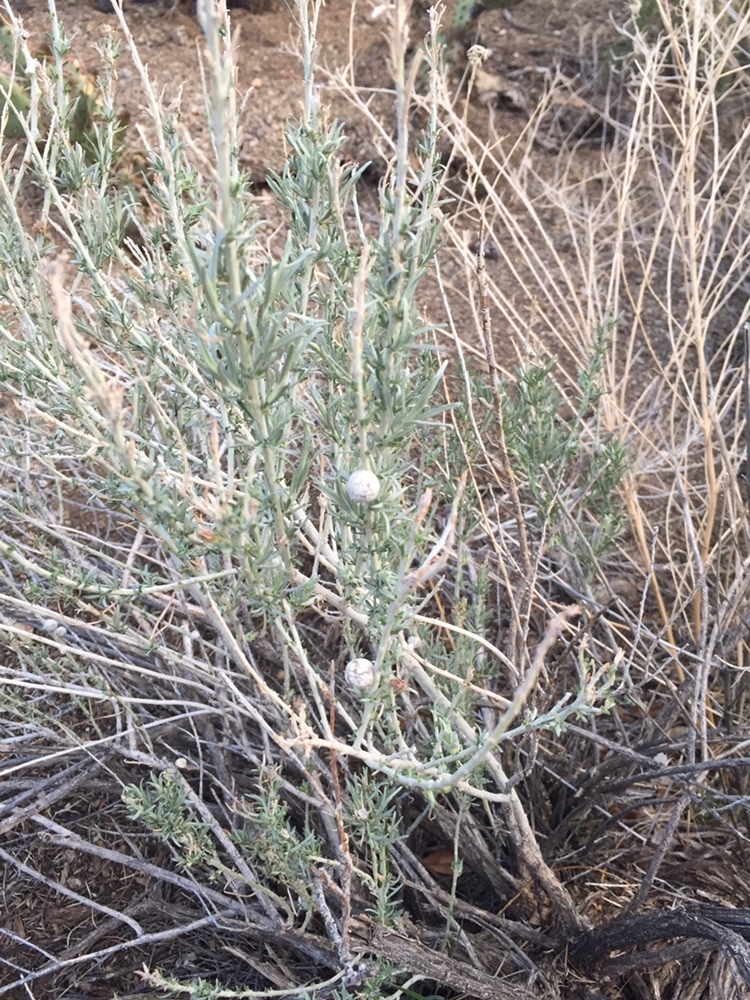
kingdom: Animalia
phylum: Arthropoda
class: Insecta
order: Diptera
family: Tephritidae
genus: Aciurina
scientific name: Aciurina trixa
